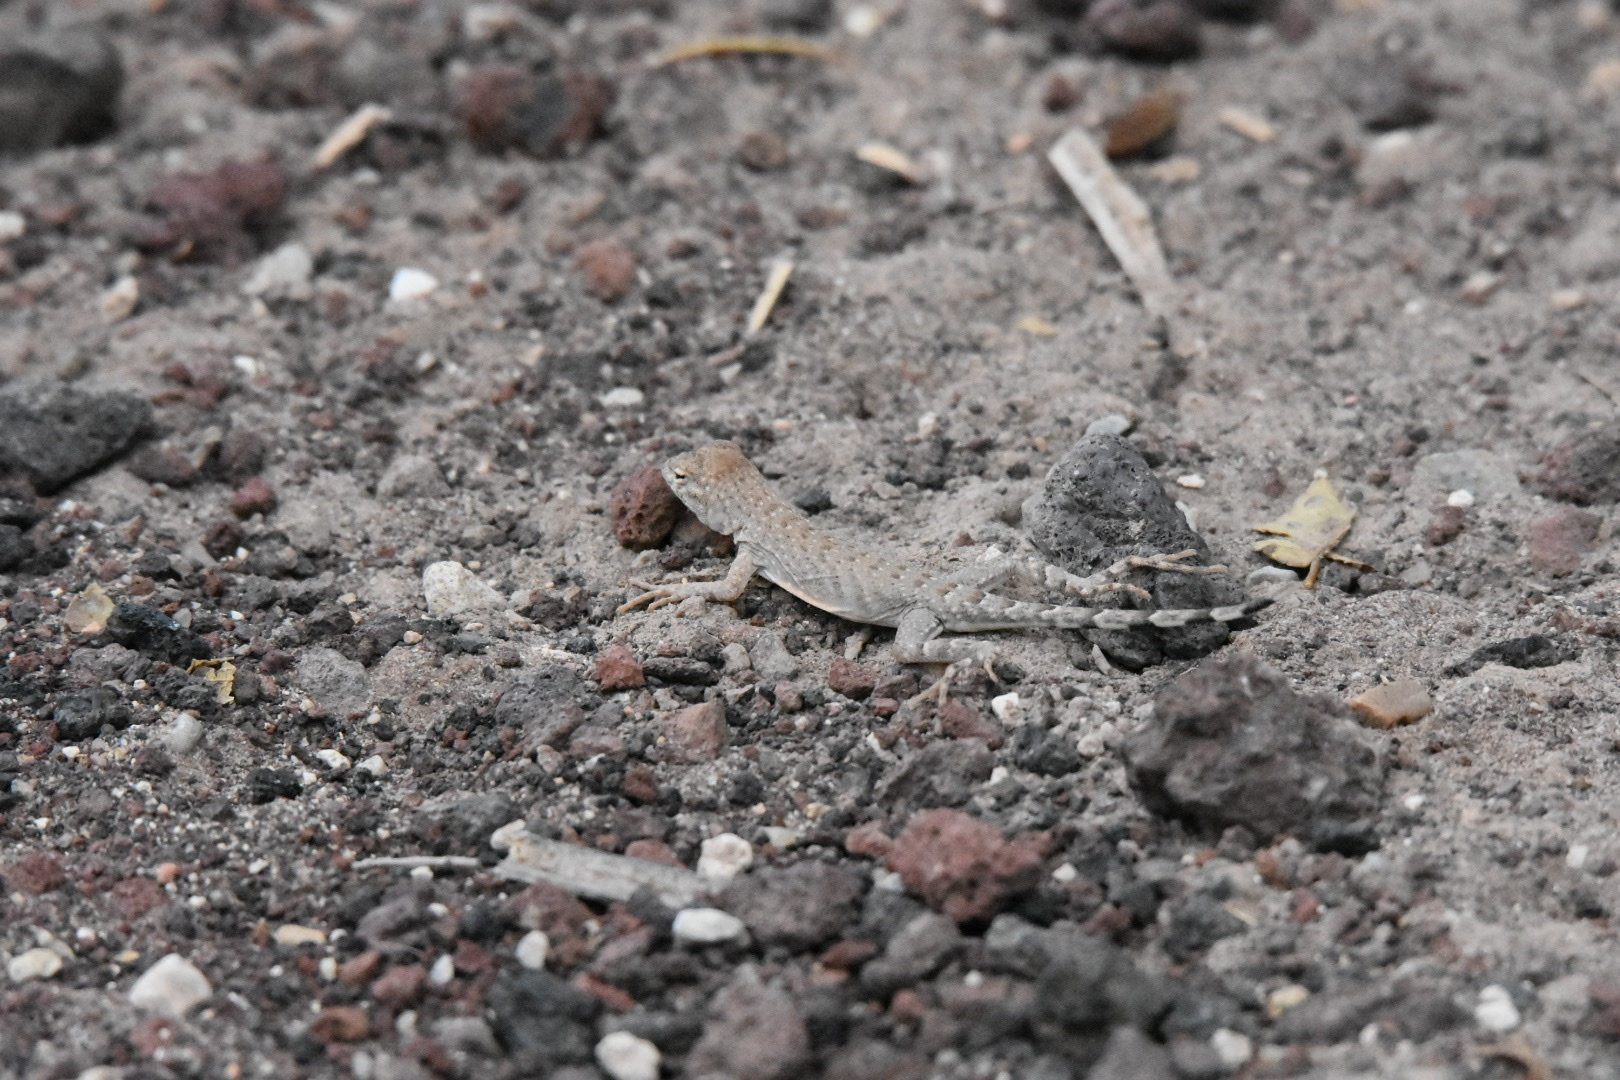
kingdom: Animalia
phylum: Chordata
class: Squamata
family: Phrynosomatidae
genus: Cophosaurus
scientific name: Cophosaurus texanus
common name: Greater earless lizard
